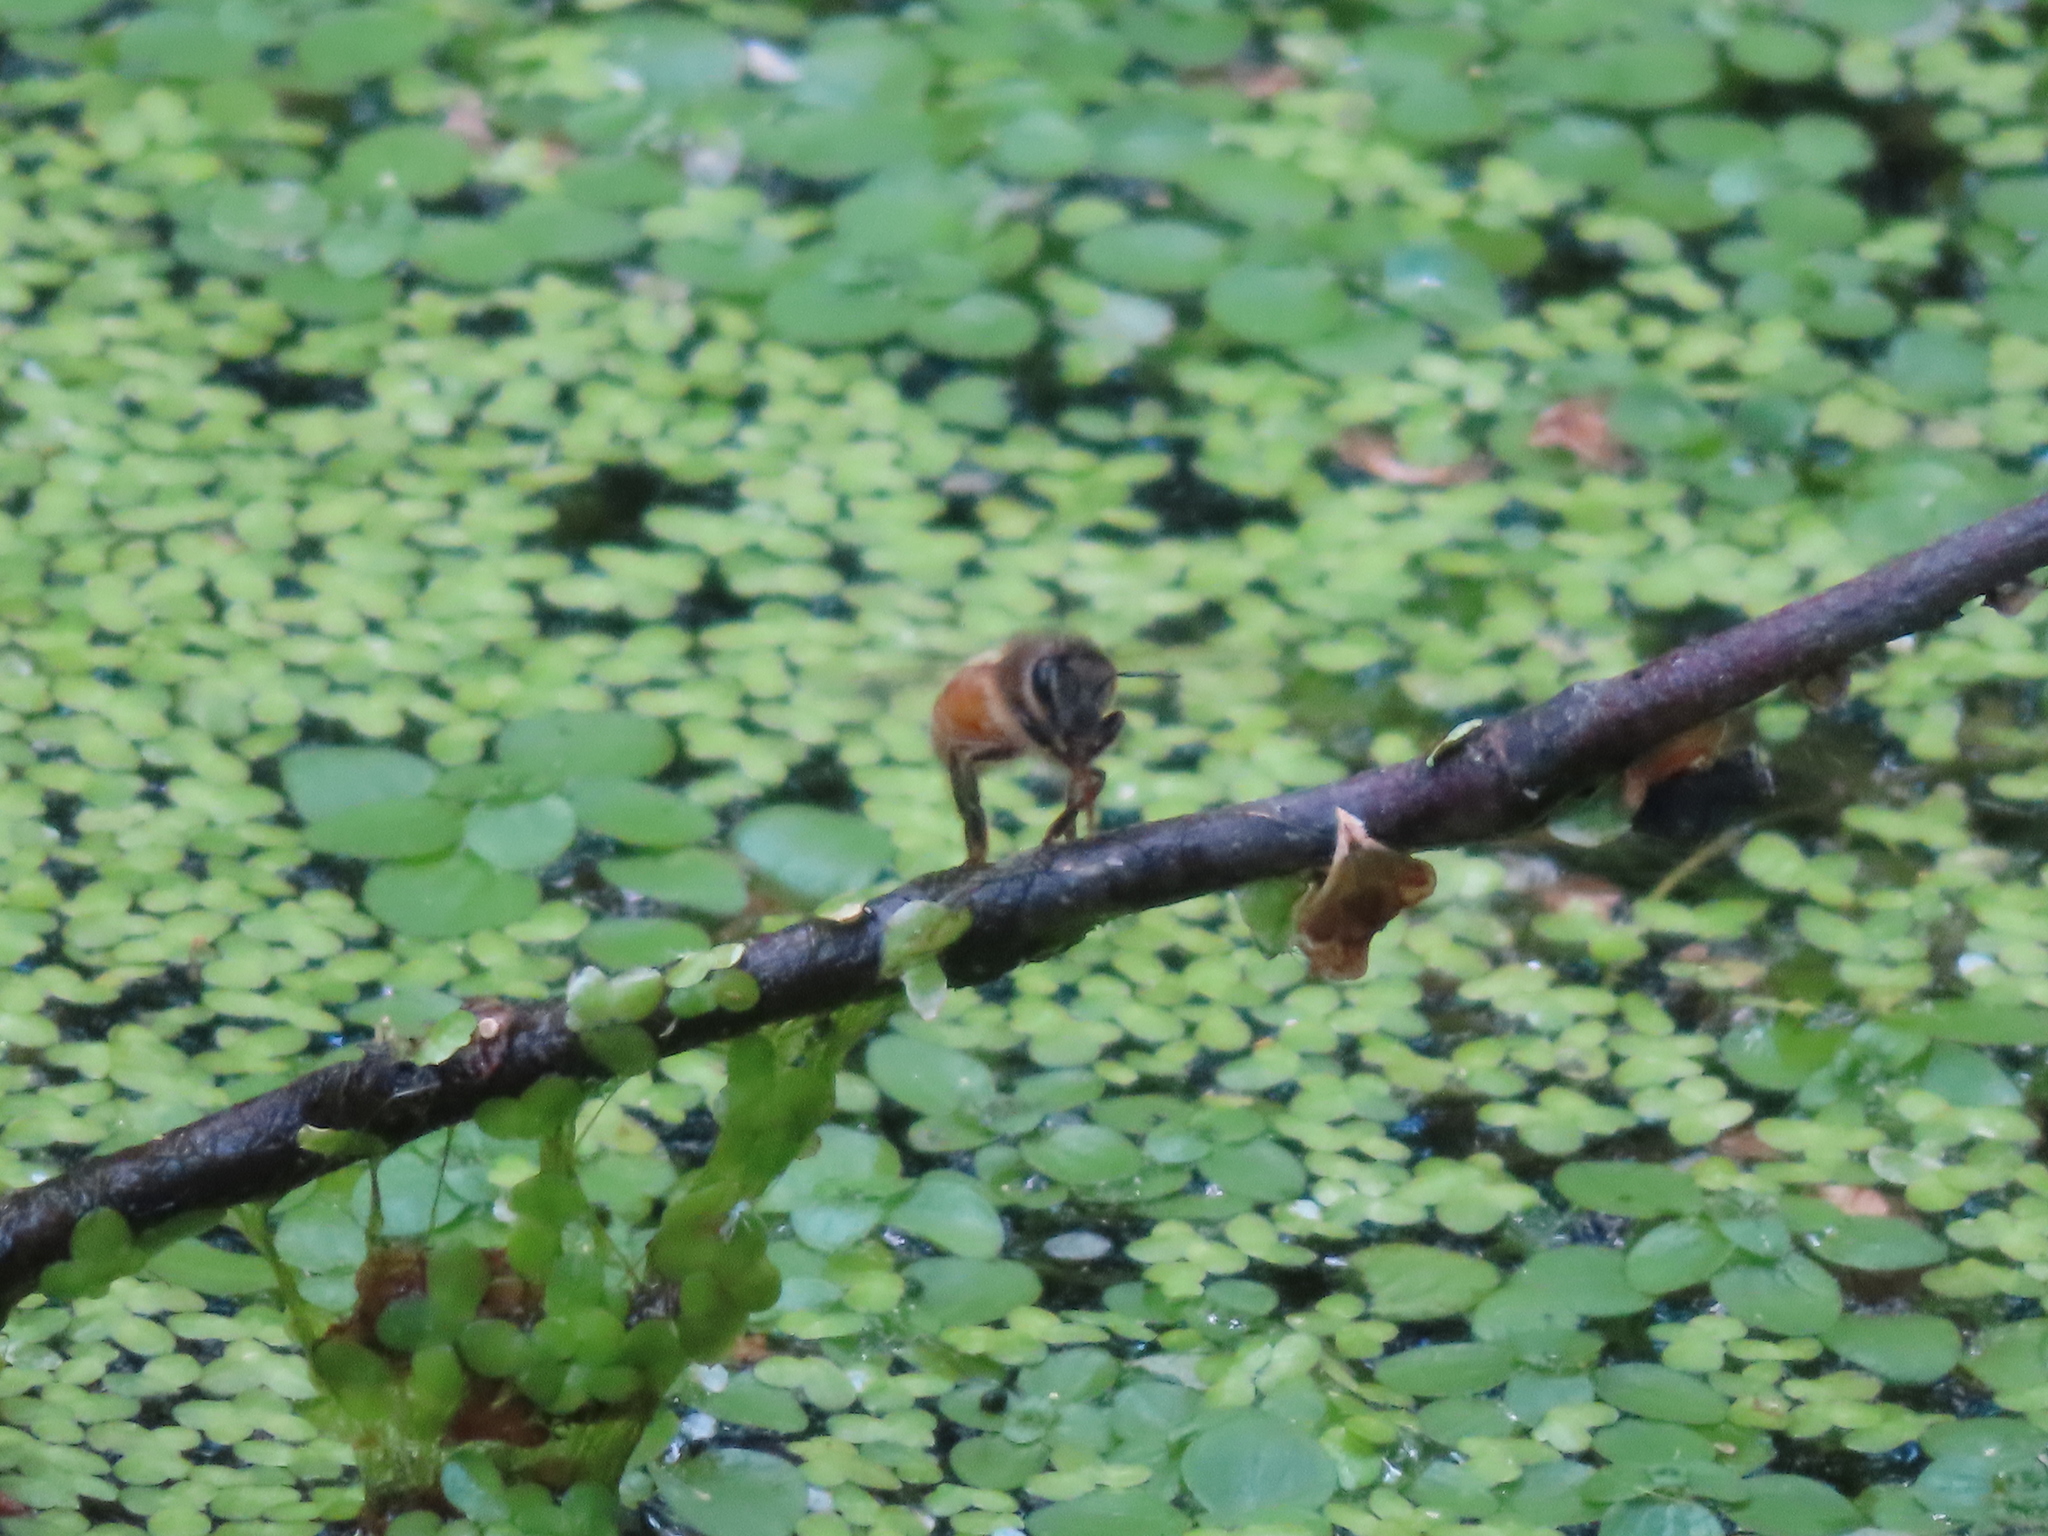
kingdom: Animalia
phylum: Arthropoda
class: Insecta
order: Hymenoptera
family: Apidae
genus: Apis
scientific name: Apis mellifera
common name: Honey bee
